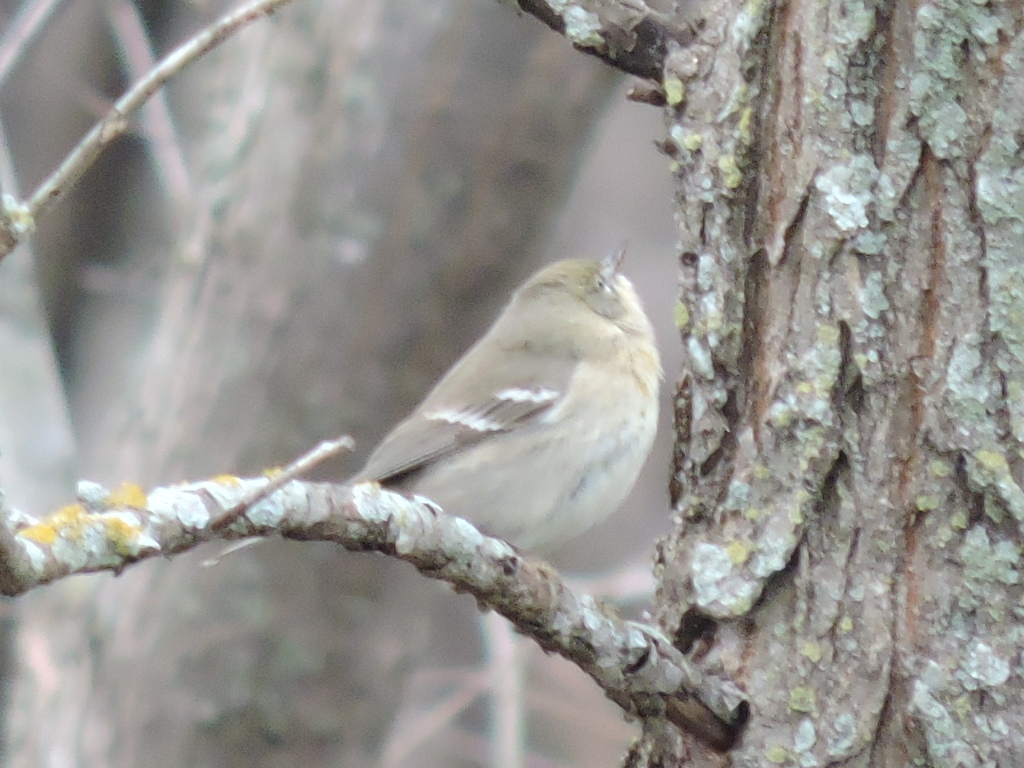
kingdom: Animalia
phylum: Chordata
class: Aves
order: Passeriformes
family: Regulidae
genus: Regulus
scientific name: Regulus calendula
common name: Ruby-crowned kinglet
